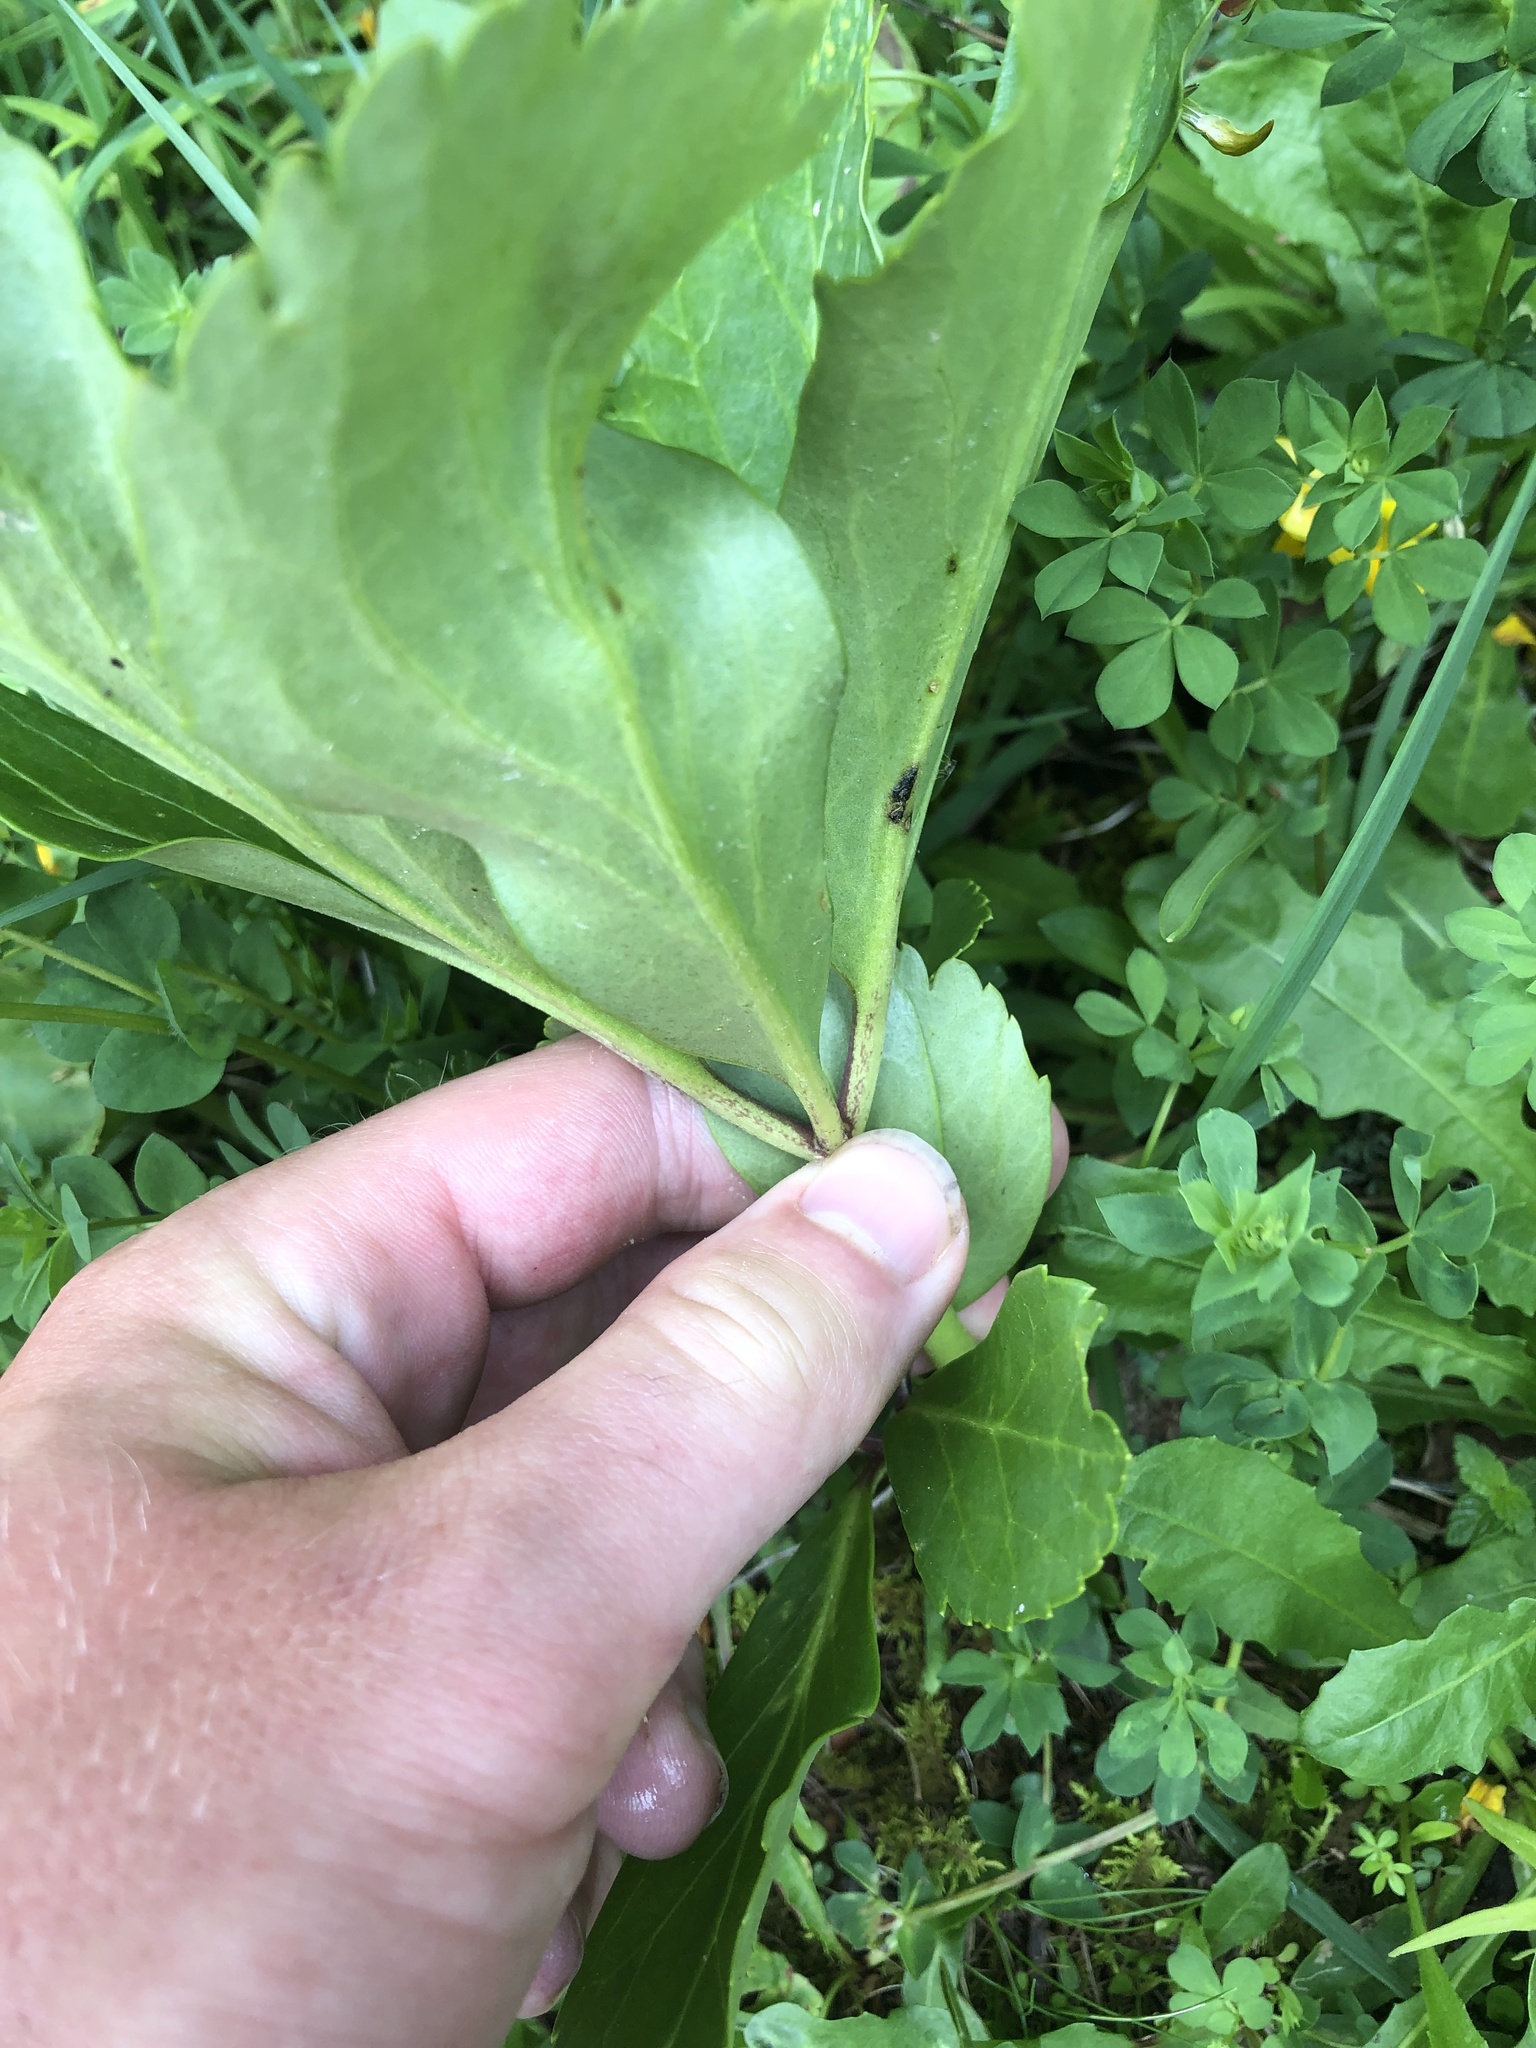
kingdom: Plantae
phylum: Tracheophyta
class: Magnoliopsida
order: Ranunculales
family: Ranunculaceae
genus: Helleborus
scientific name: Helleborus niger
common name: Black hellebore
